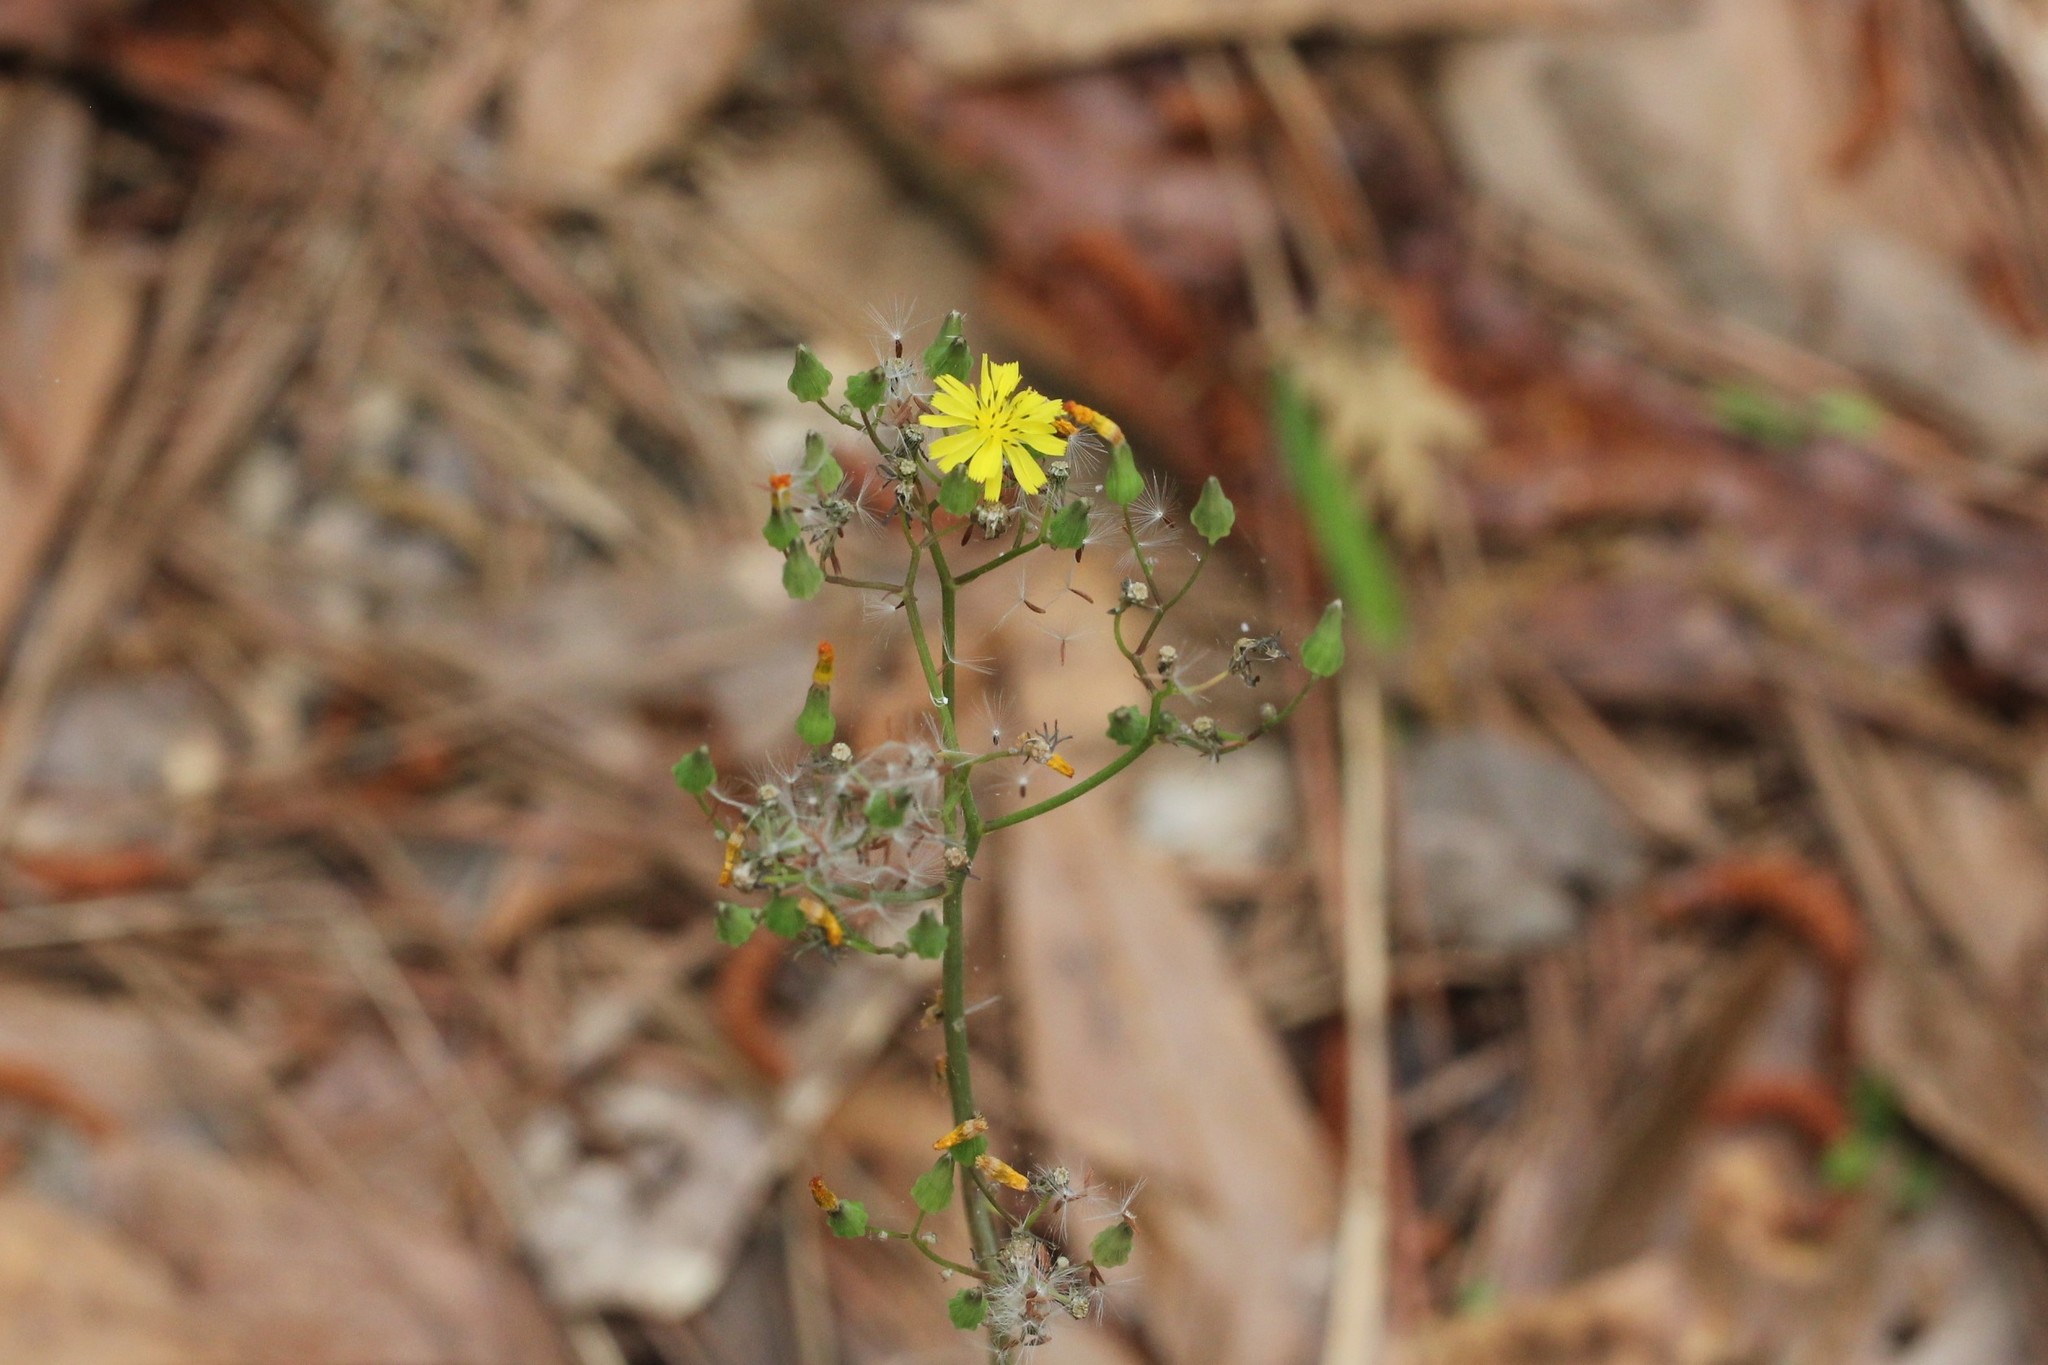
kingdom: Plantae
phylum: Tracheophyta
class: Magnoliopsida
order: Asterales
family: Asteraceae
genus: Youngia
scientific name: Youngia japonica
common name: Oriental false hawksbeard
